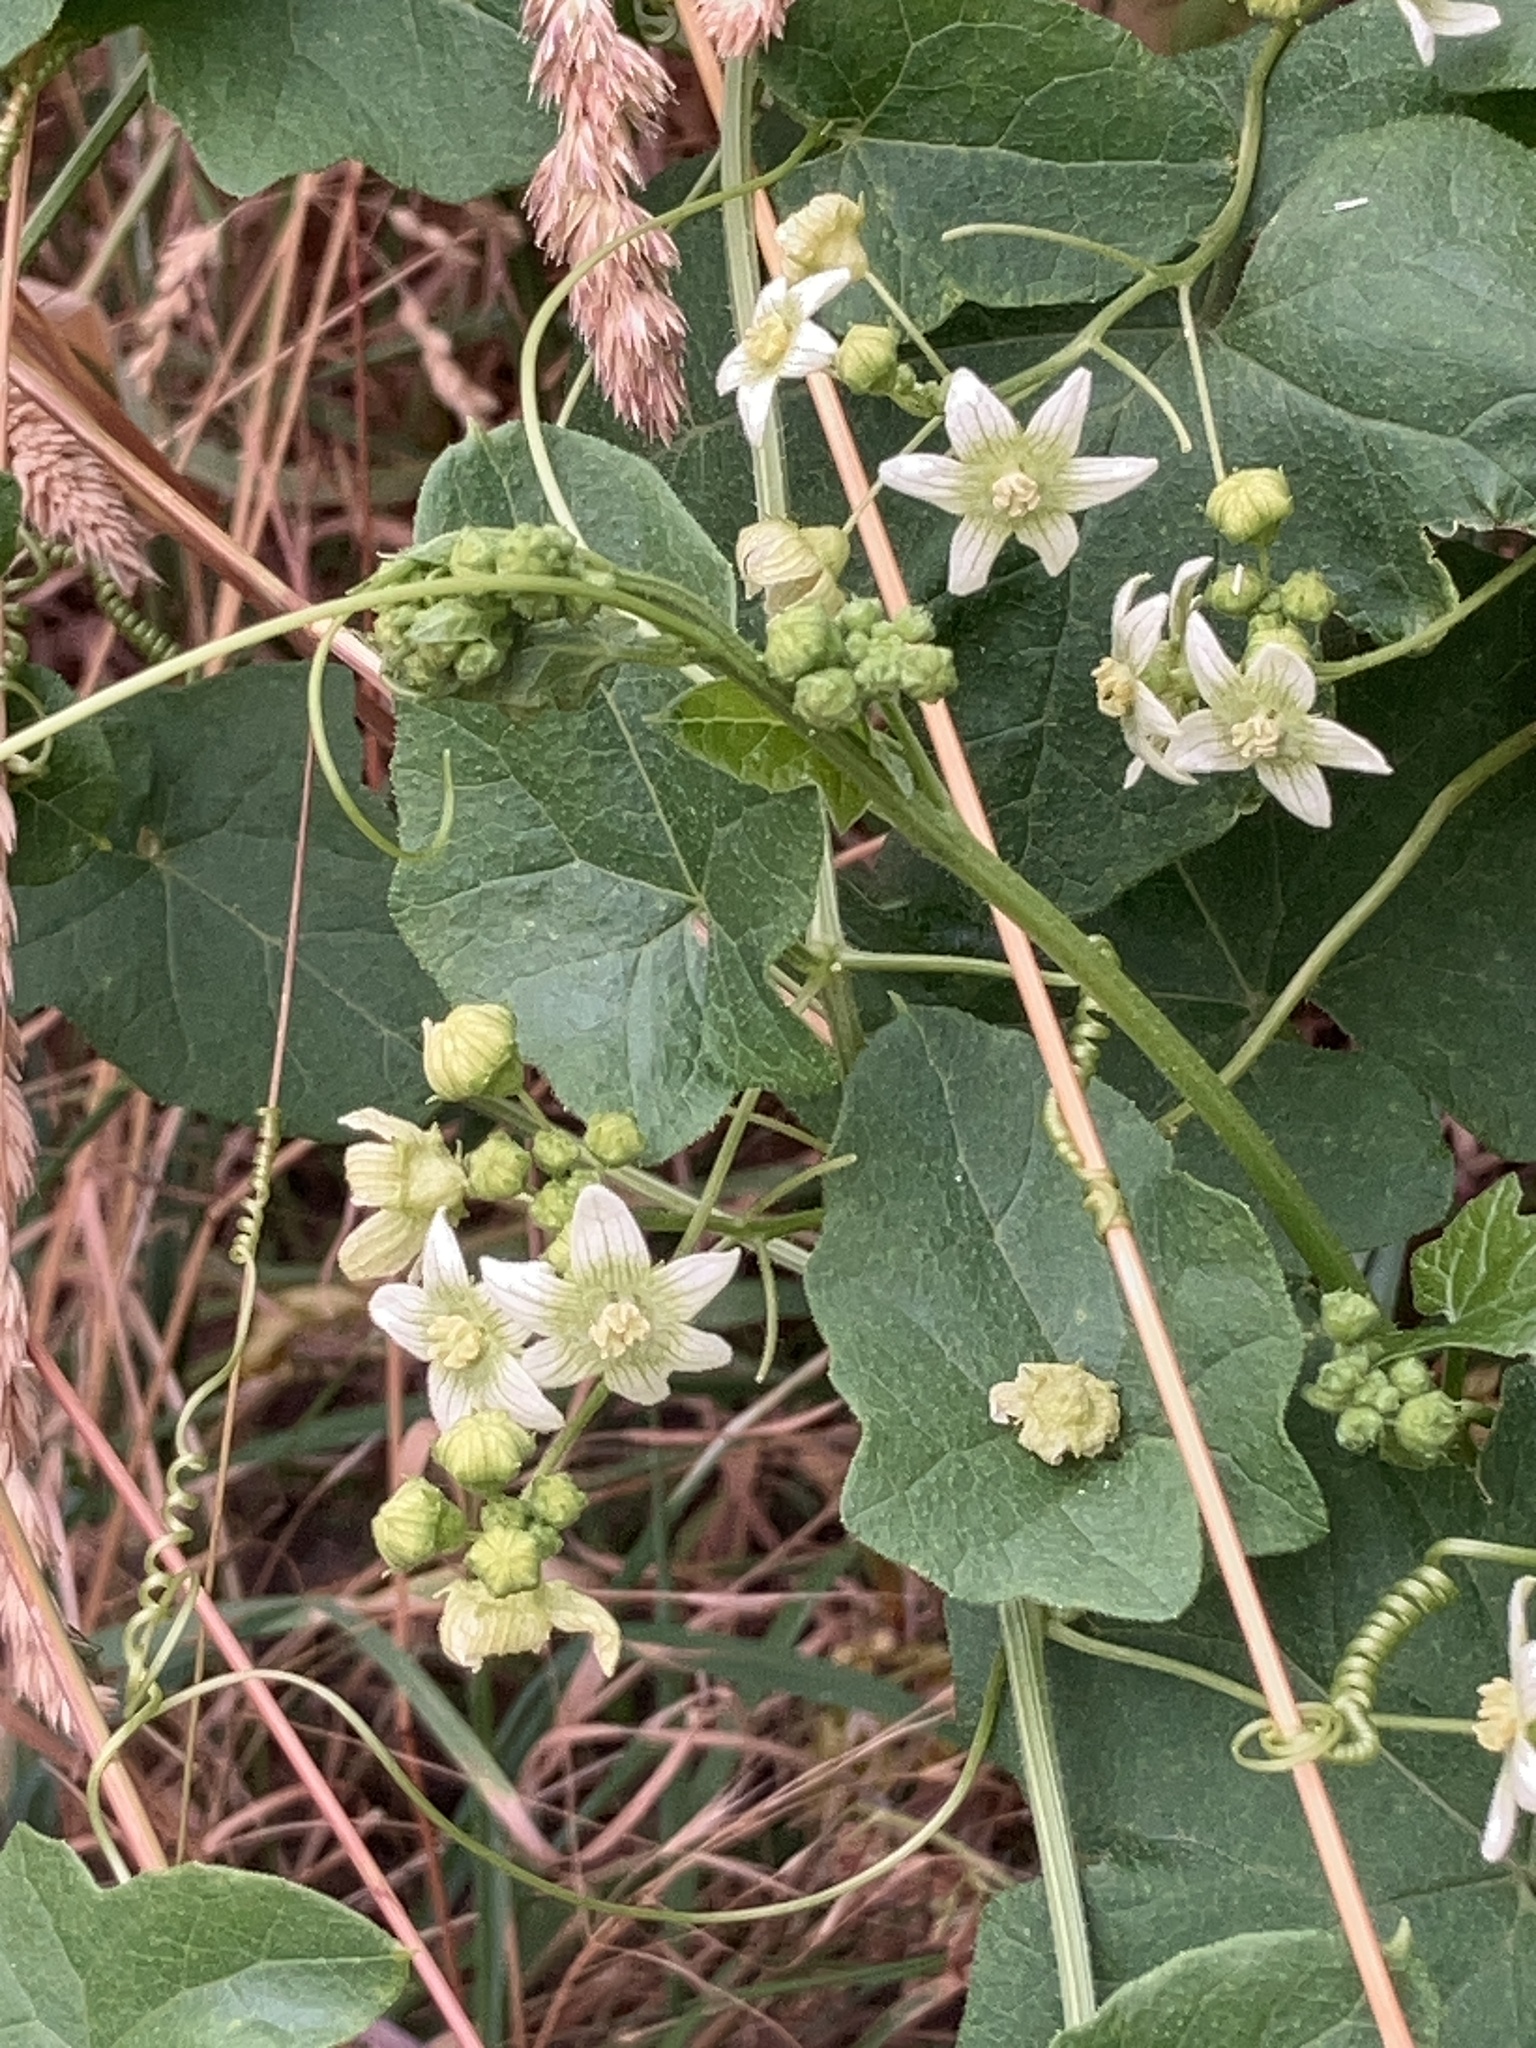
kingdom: Plantae
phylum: Tracheophyta
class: Magnoliopsida
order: Cucurbitales
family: Cucurbitaceae
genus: Bryonia
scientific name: Bryonia cretica
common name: Cretan bryony
